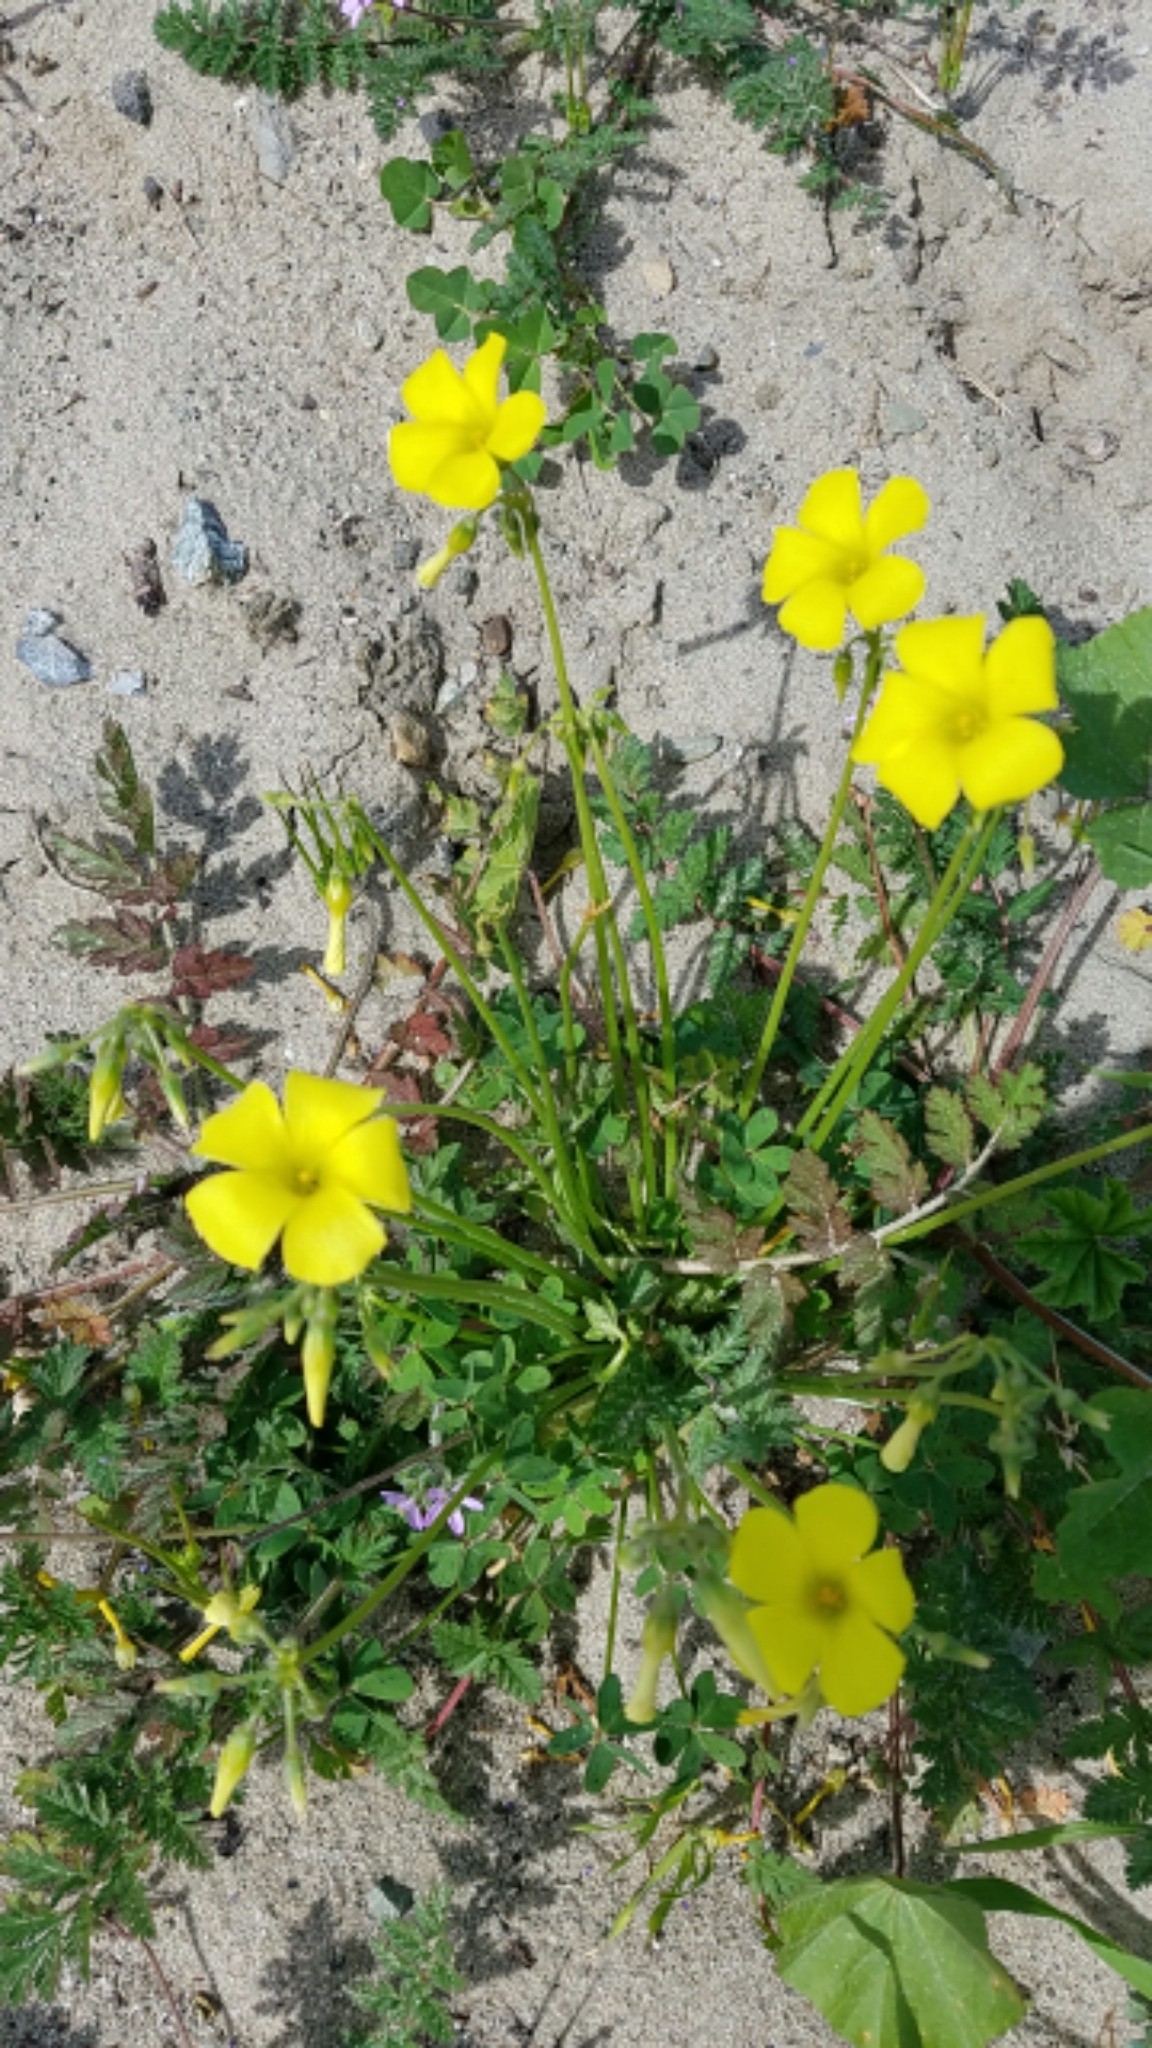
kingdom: Plantae
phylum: Tracheophyta
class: Magnoliopsida
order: Oxalidales
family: Oxalidaceae
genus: Oxalis
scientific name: Oxalis pes-caprae
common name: Bermuda-buttercup
